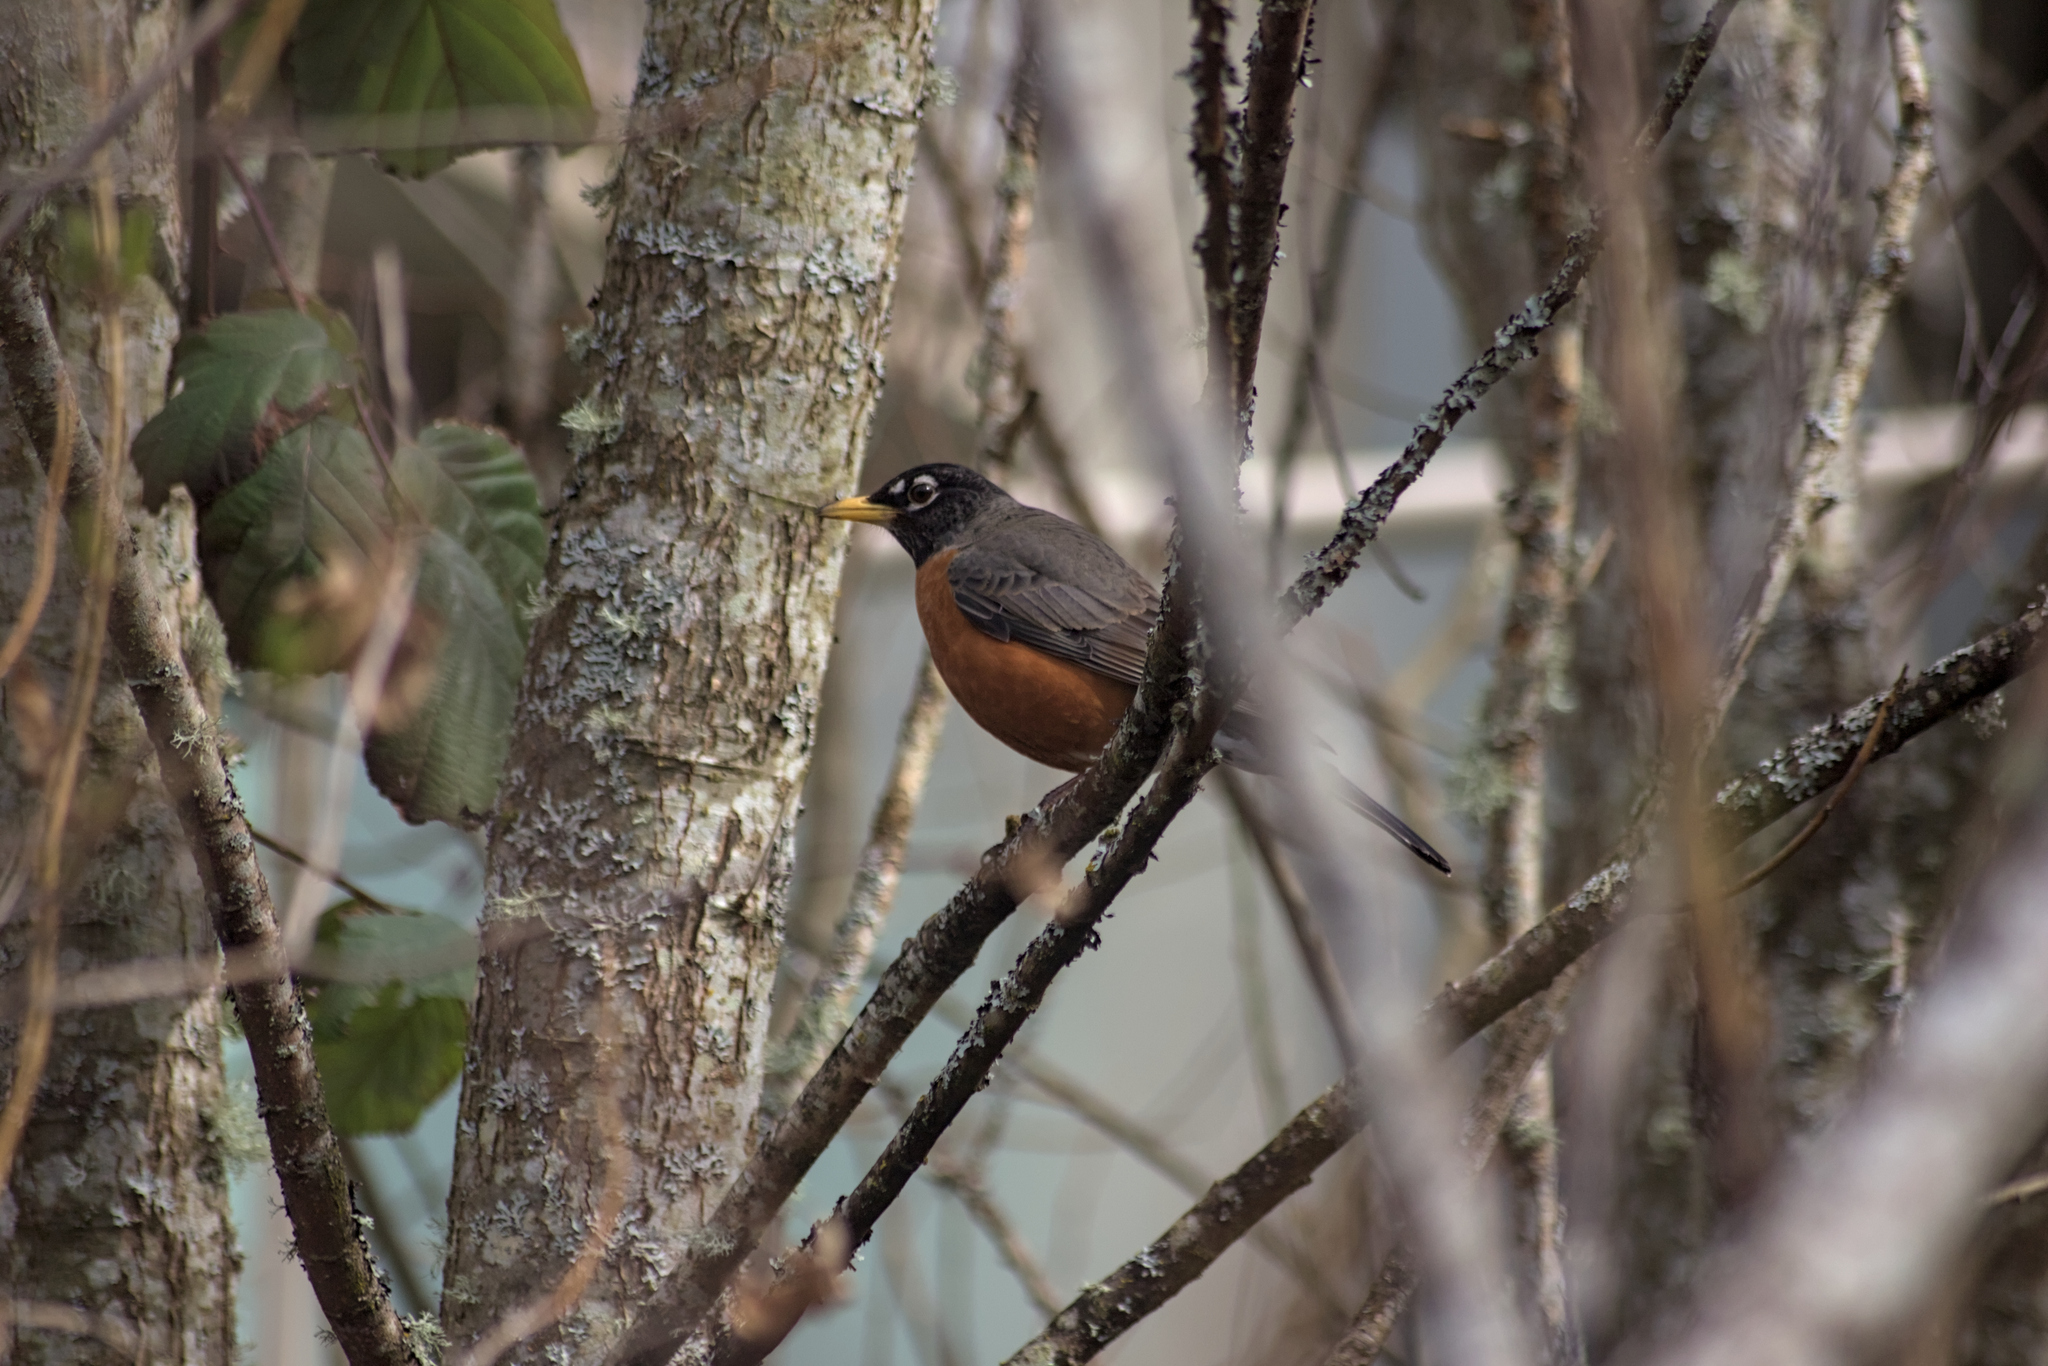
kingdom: Animalia
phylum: Chordata
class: Aves
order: Passeriformes
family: Turdidae
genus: Turdus
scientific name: Turdus migratorius
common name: American robin
